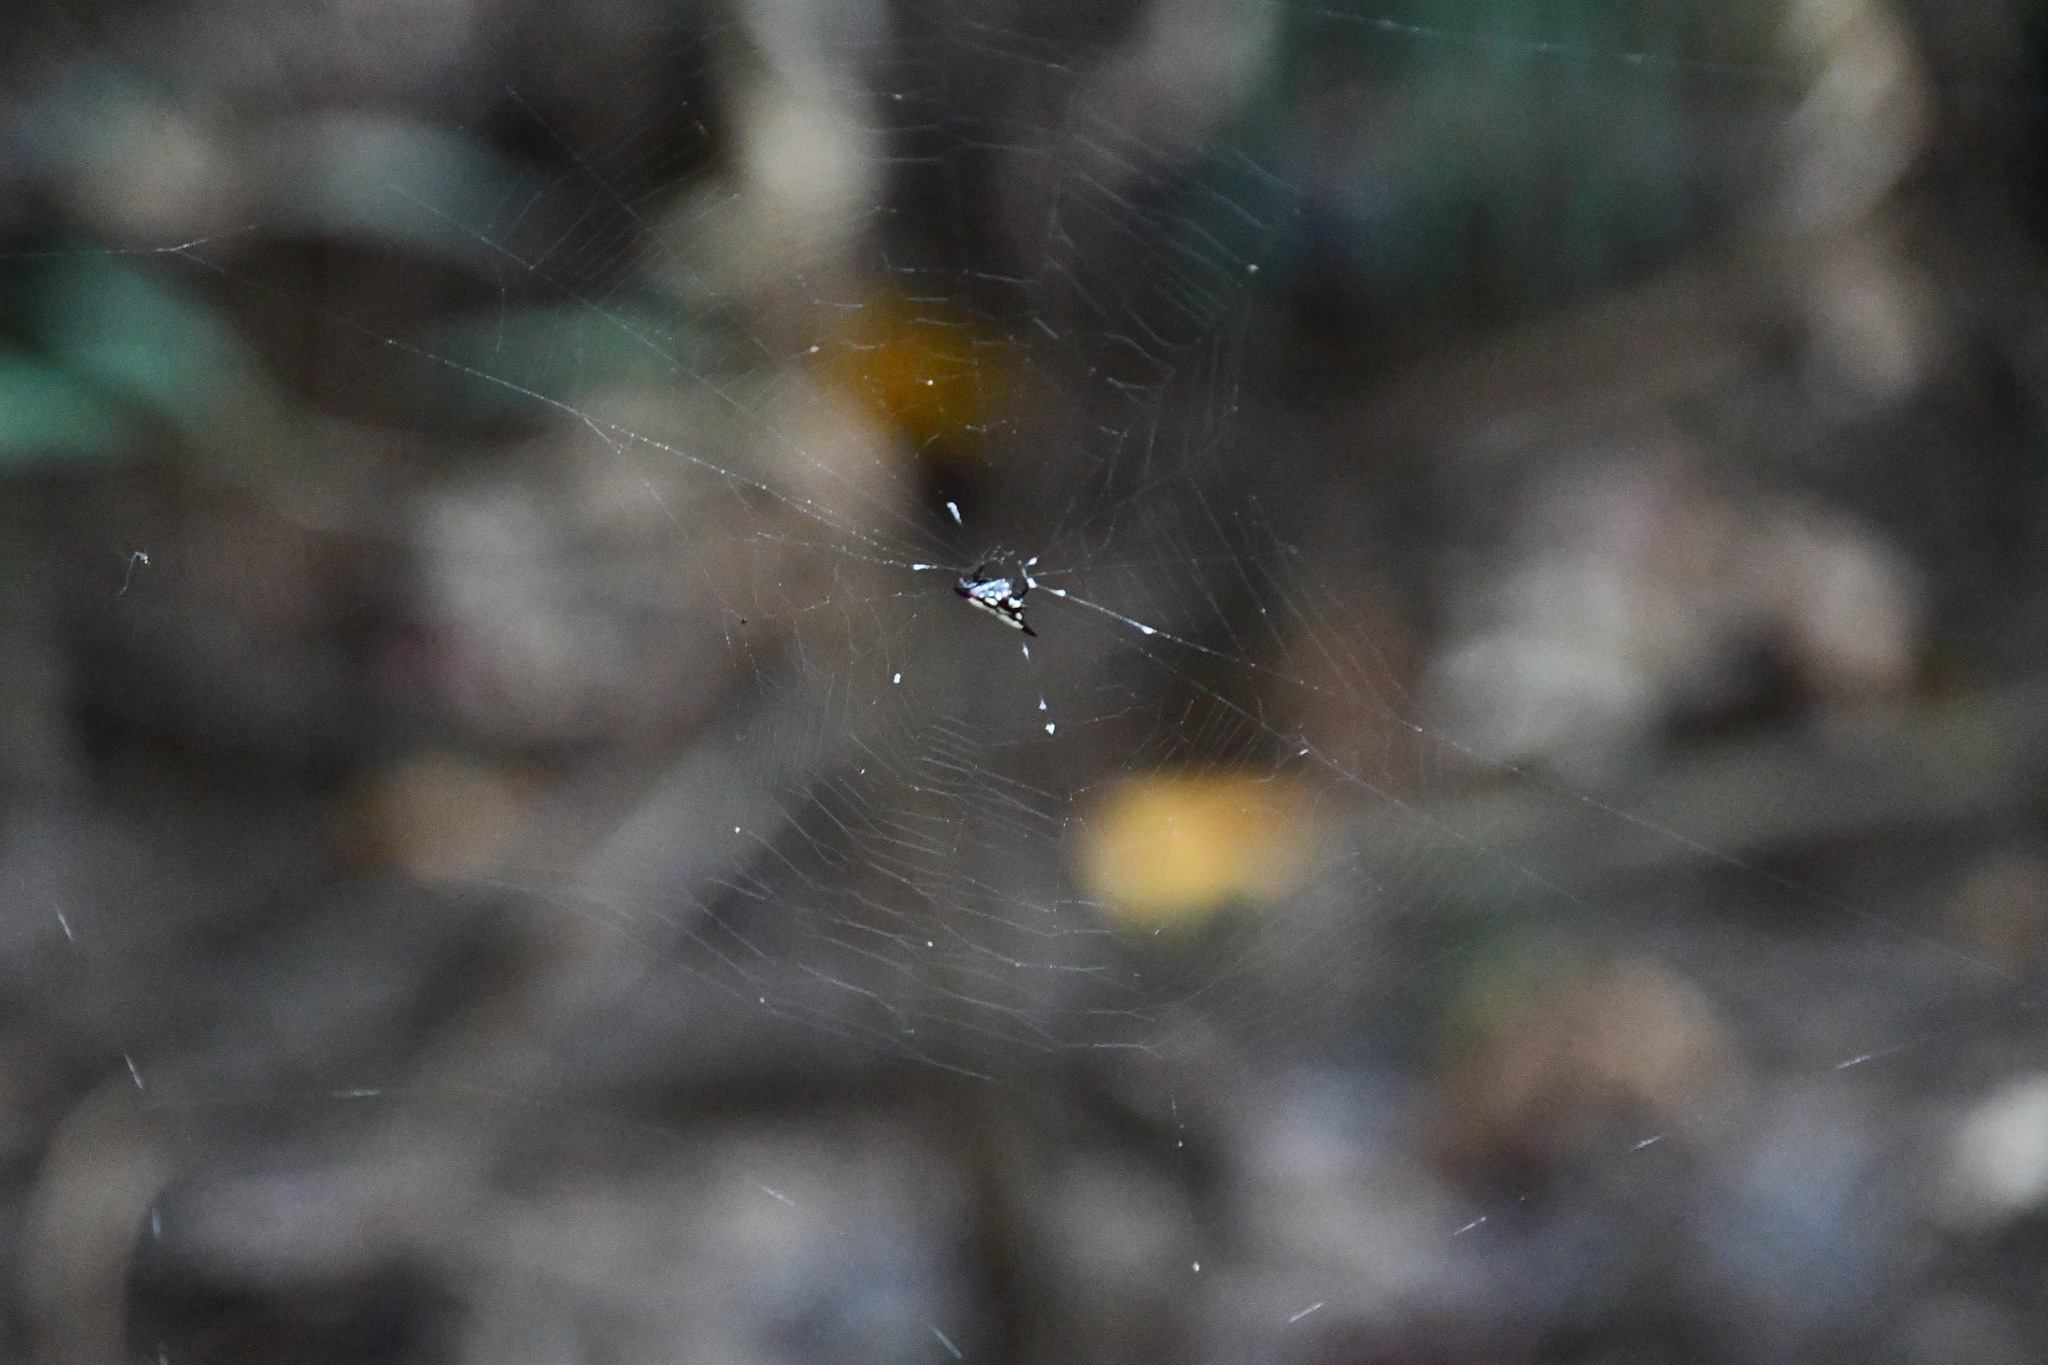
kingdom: Animalia
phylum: Arthropoda
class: Arachnida
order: Araneae
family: Araneidae
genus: Gasteracantha
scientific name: Gasteracantha fornicata
